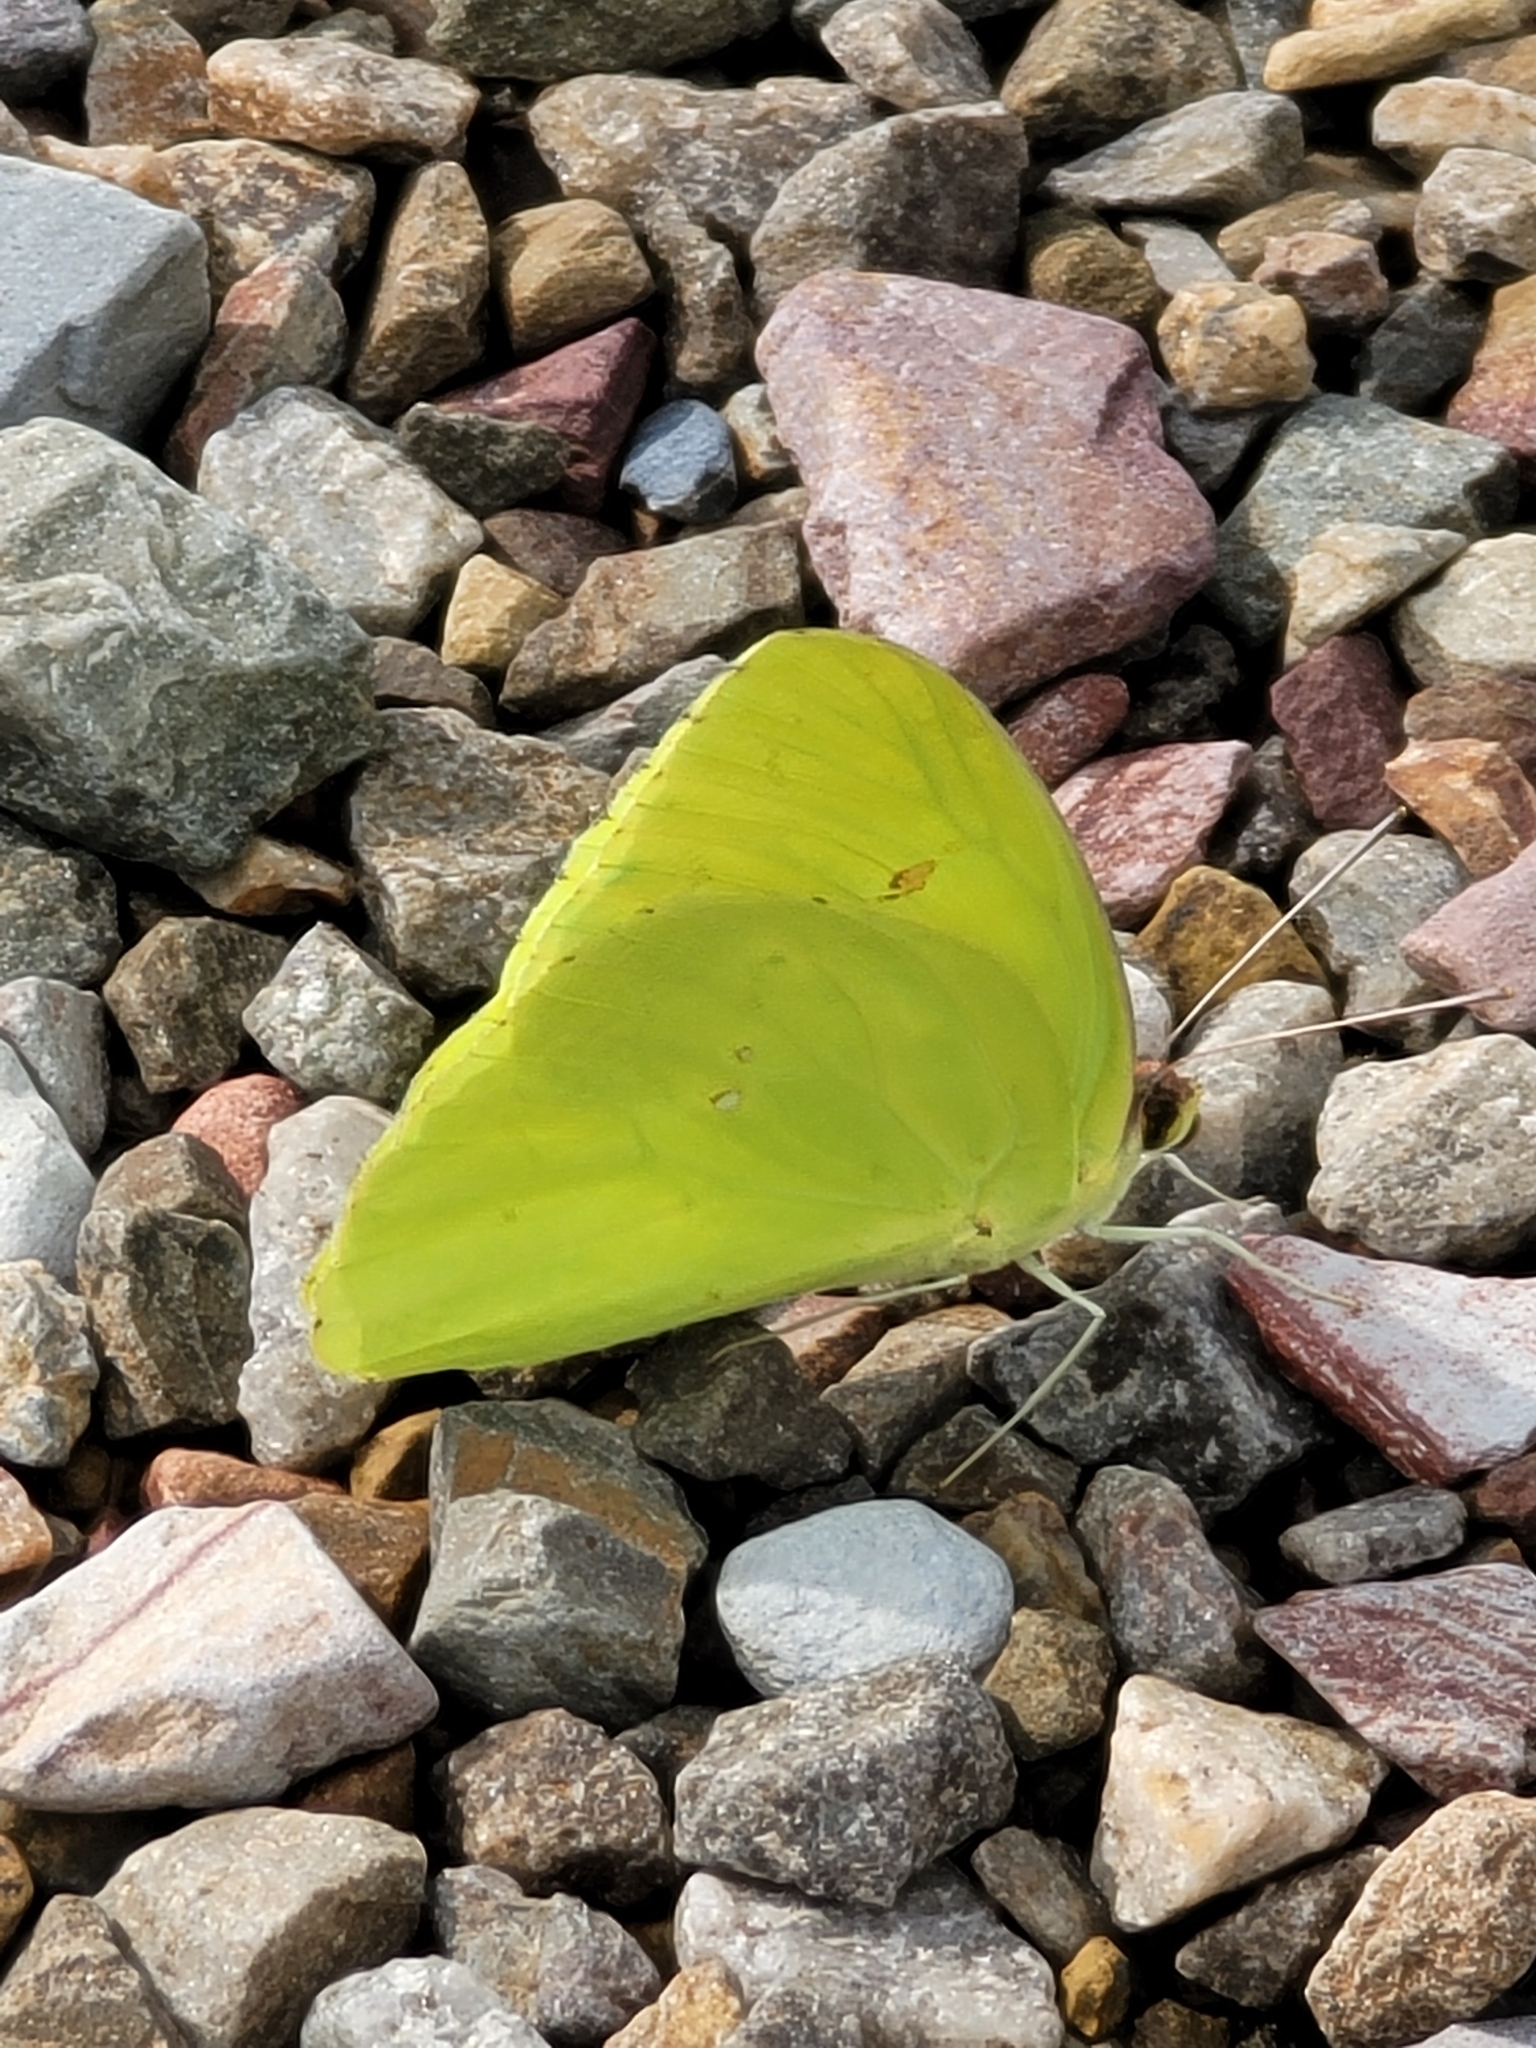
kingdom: Animalia
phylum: Arthropoda
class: Insecta
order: Lepidoptera
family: Pieridae
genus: Phoebis
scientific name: Phoebis sennae
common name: Cloudless sulphur
